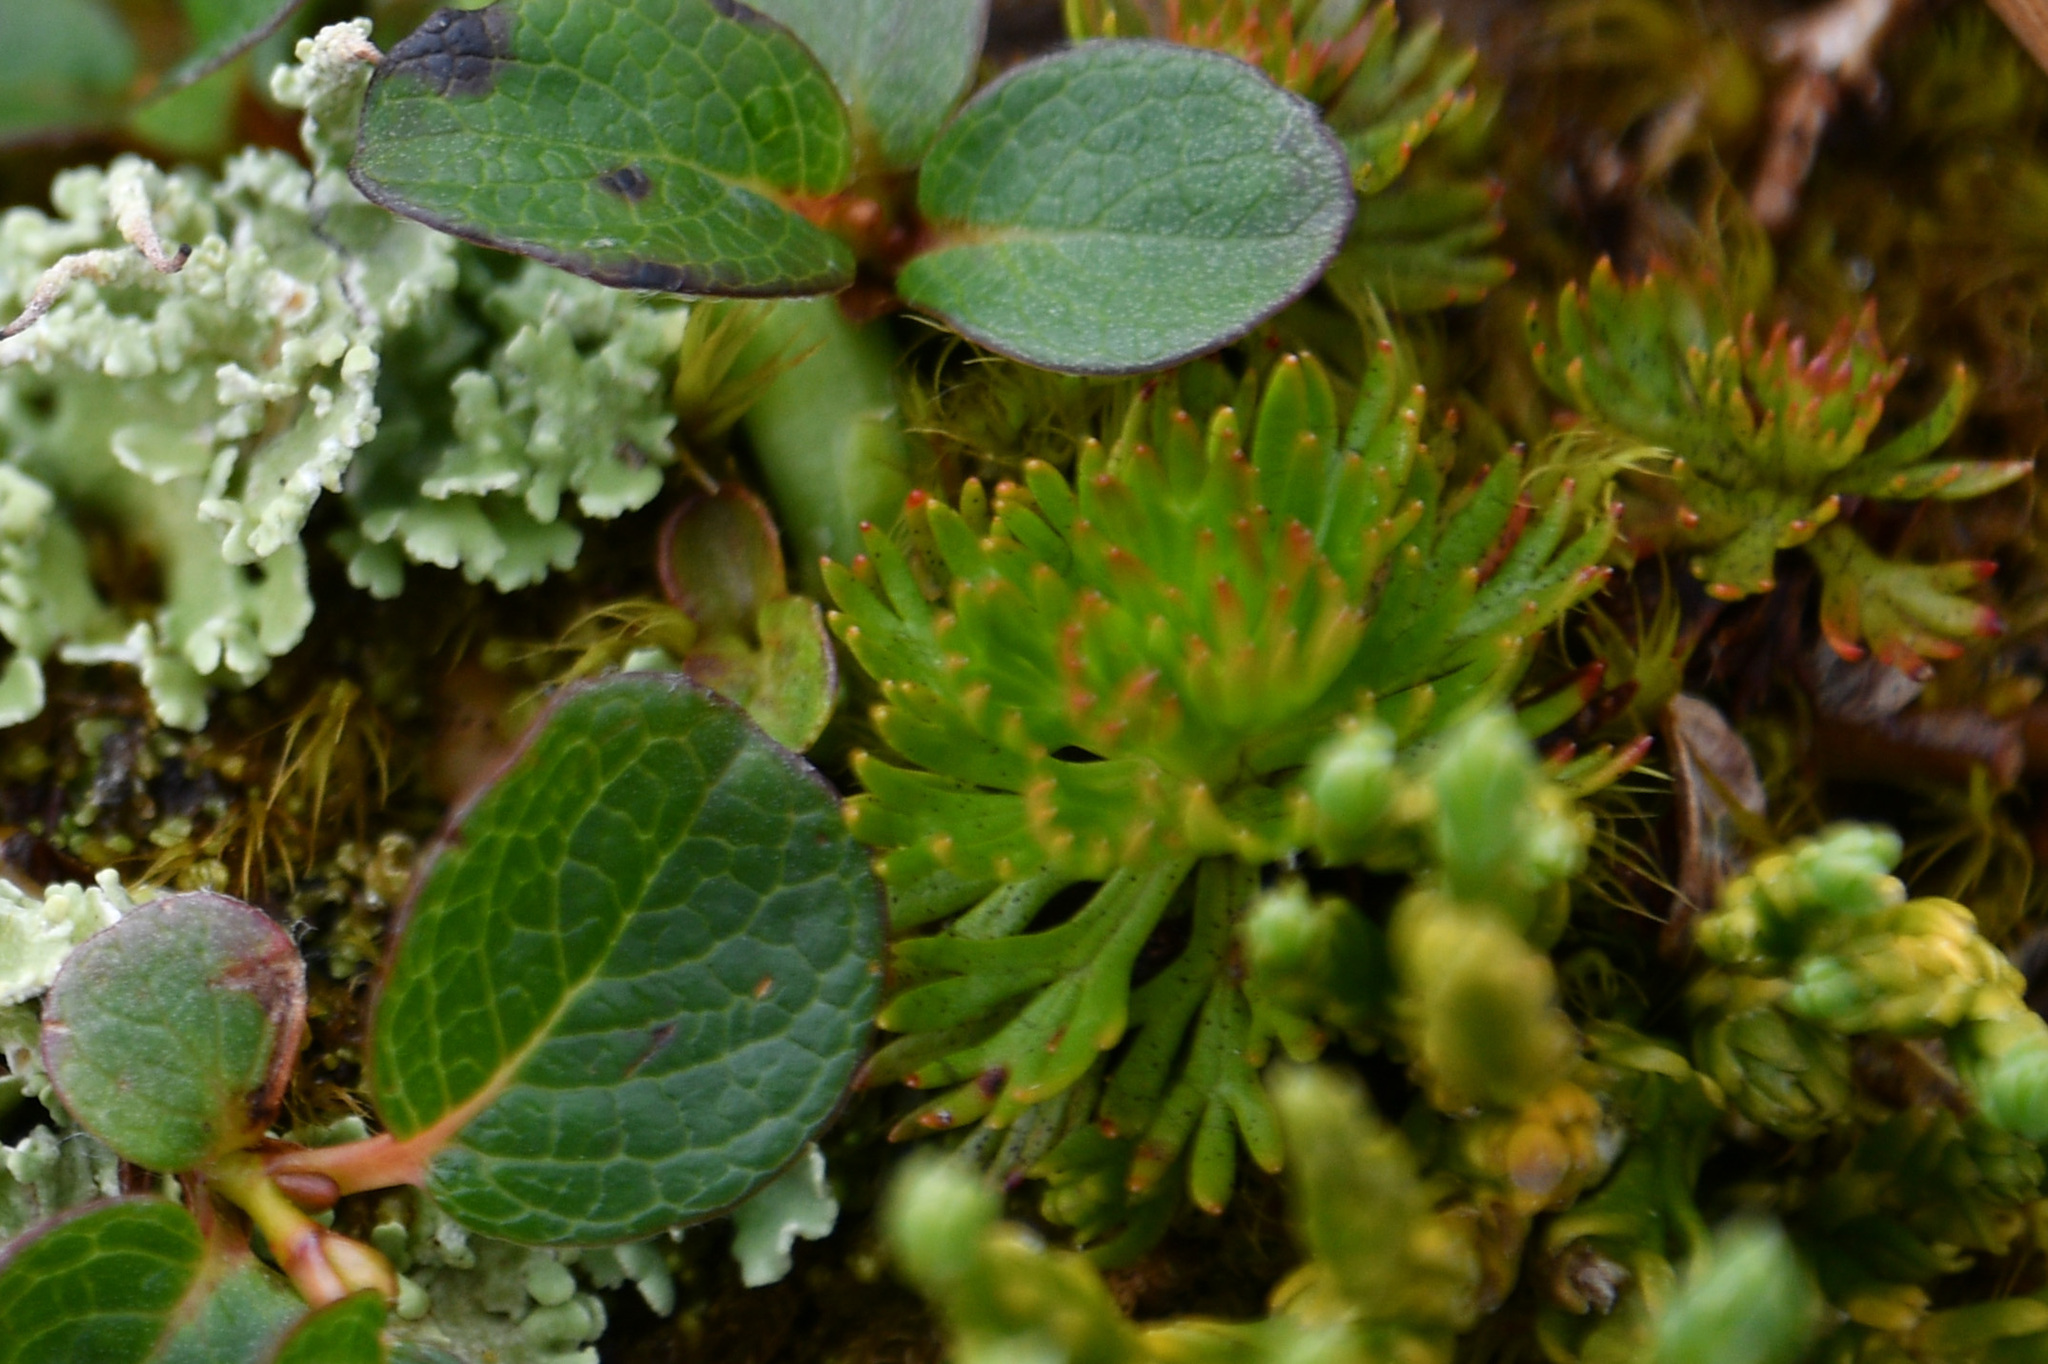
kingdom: Plantae
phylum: Tracheophyta
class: Magnoliopsida
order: Rosales
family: Rosaceae
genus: Luetkea
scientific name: Luetkea pectinata
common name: Partridgefoot
